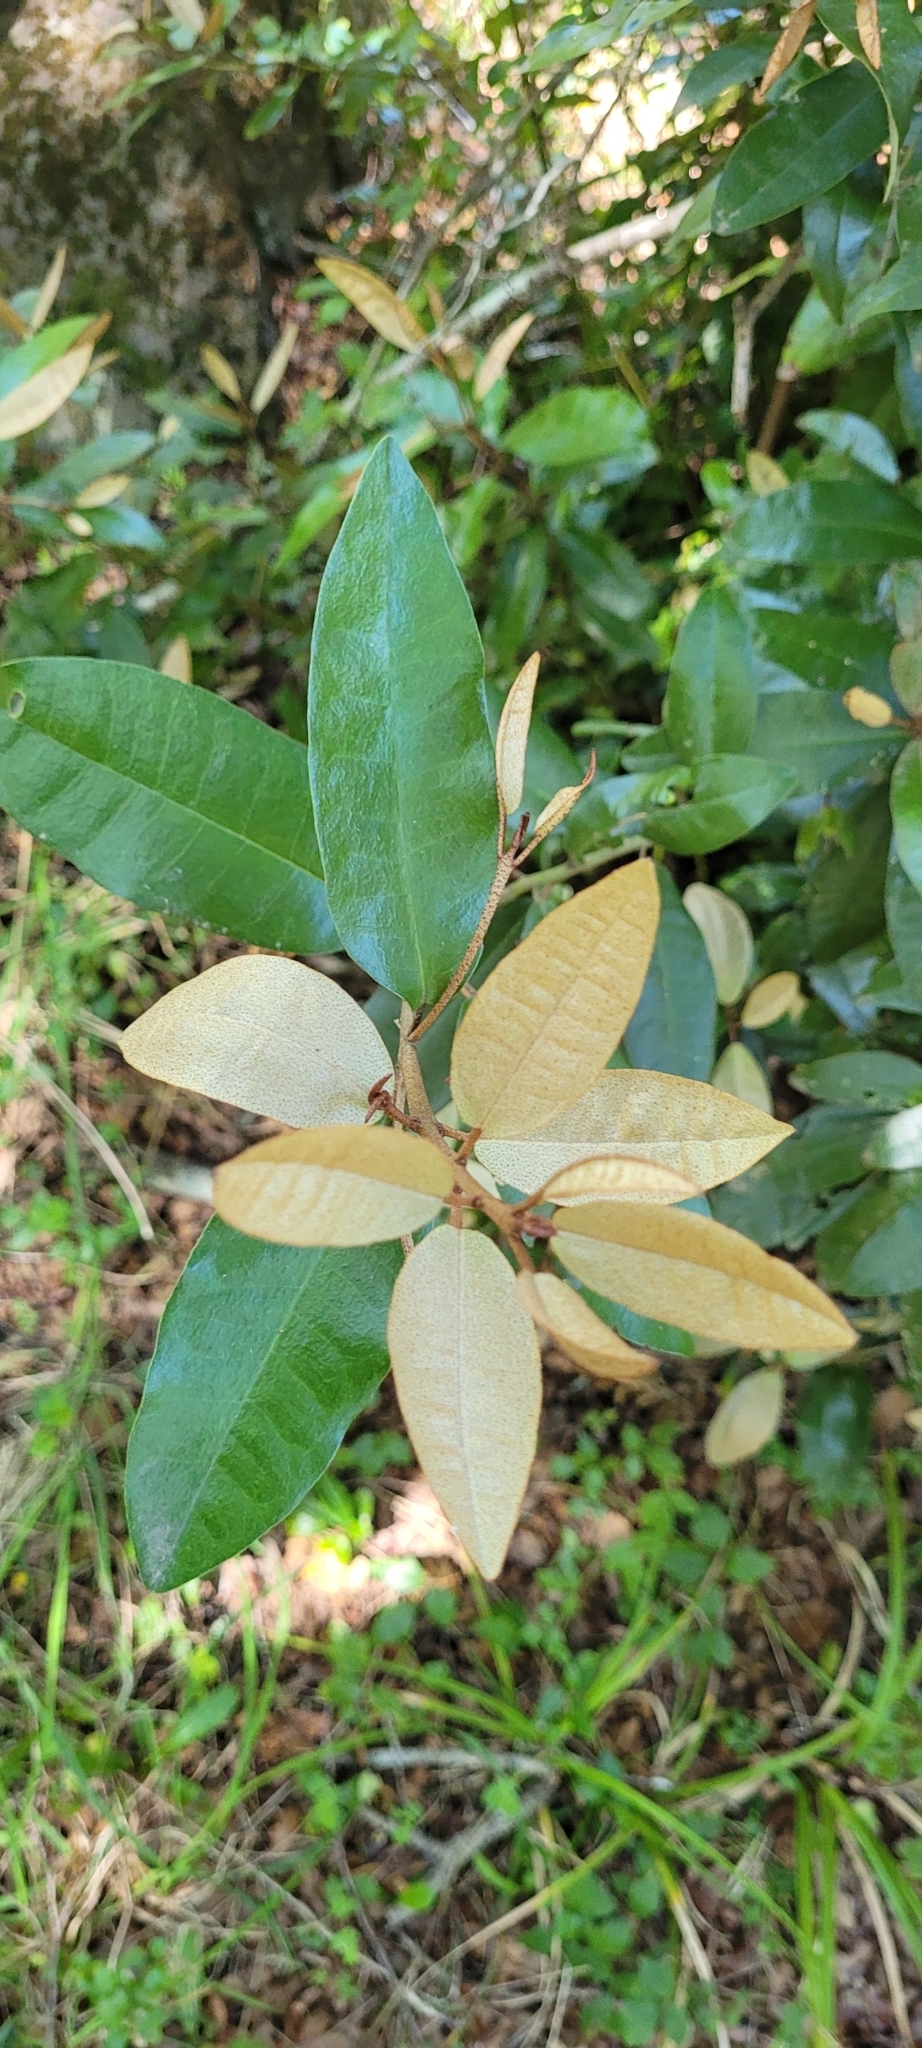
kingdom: Plantae
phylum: Tracheophyta
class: Magnoliopsida
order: Berberidopsidales
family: Aextoxicaceae
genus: Aextoxicon
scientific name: Aextoxicon punctatum
